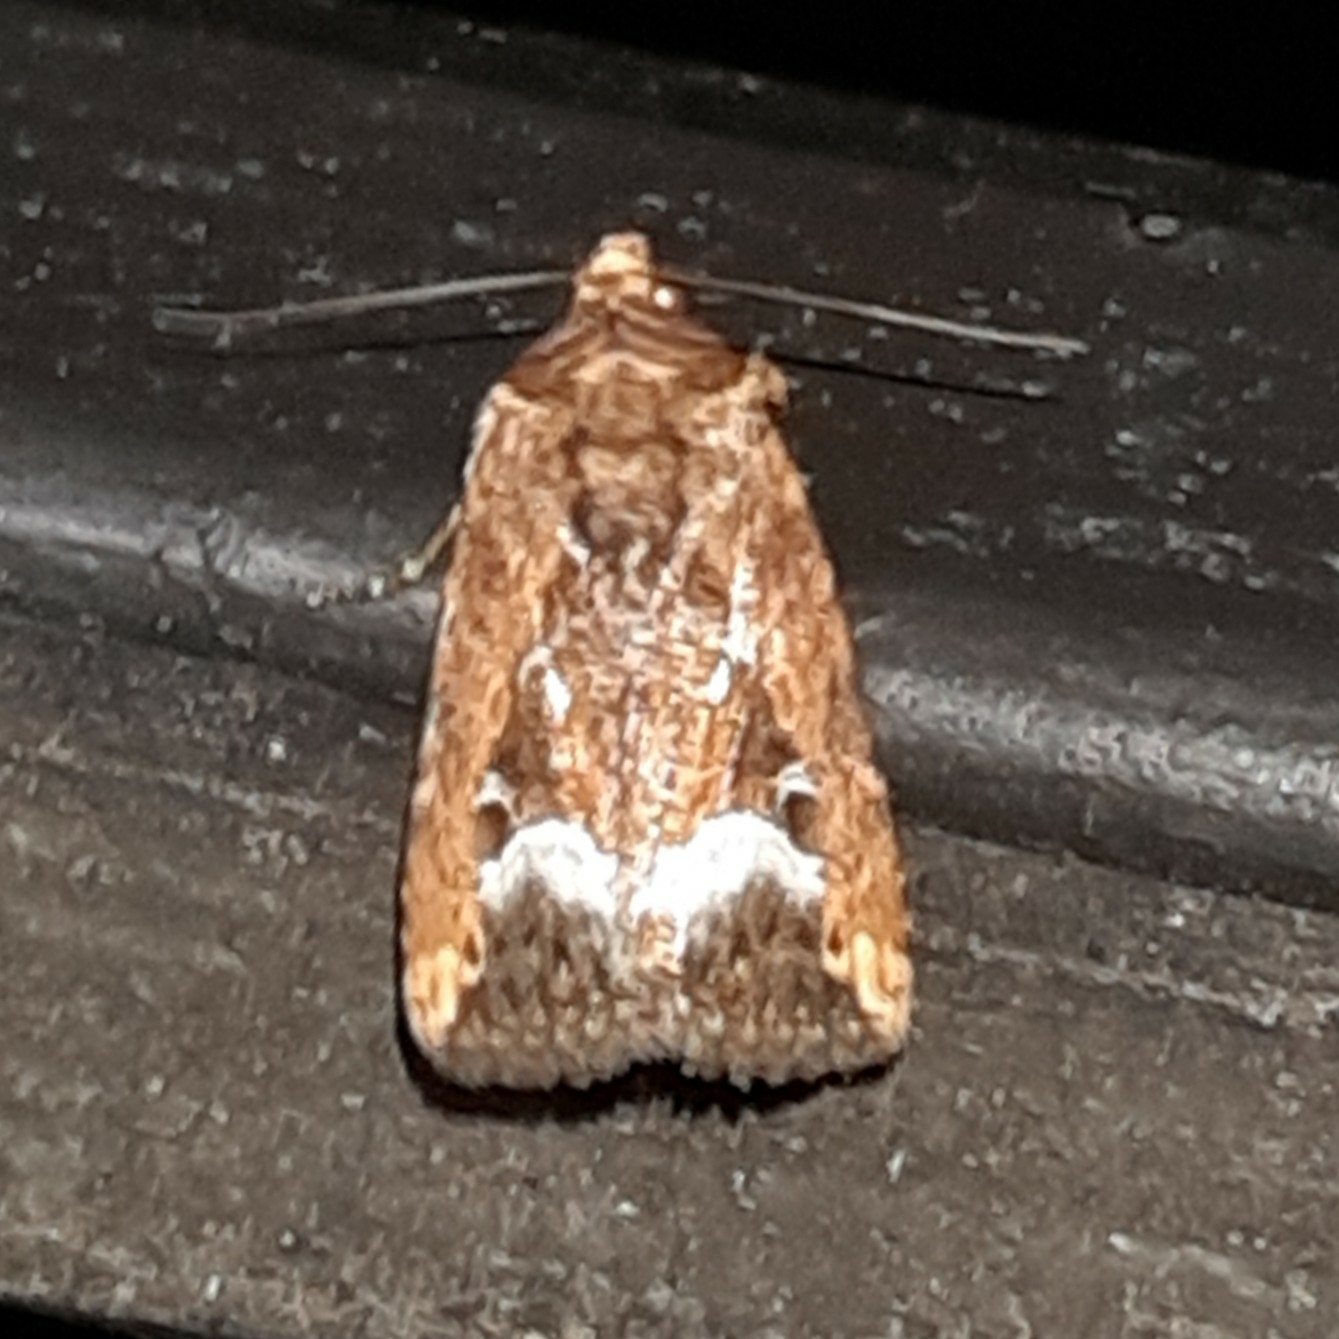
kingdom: Animalia
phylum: Arthropoda
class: Insecta
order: Lepidoptera
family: Noctuidae
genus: Elaphria
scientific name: Elaphria subobliqua
